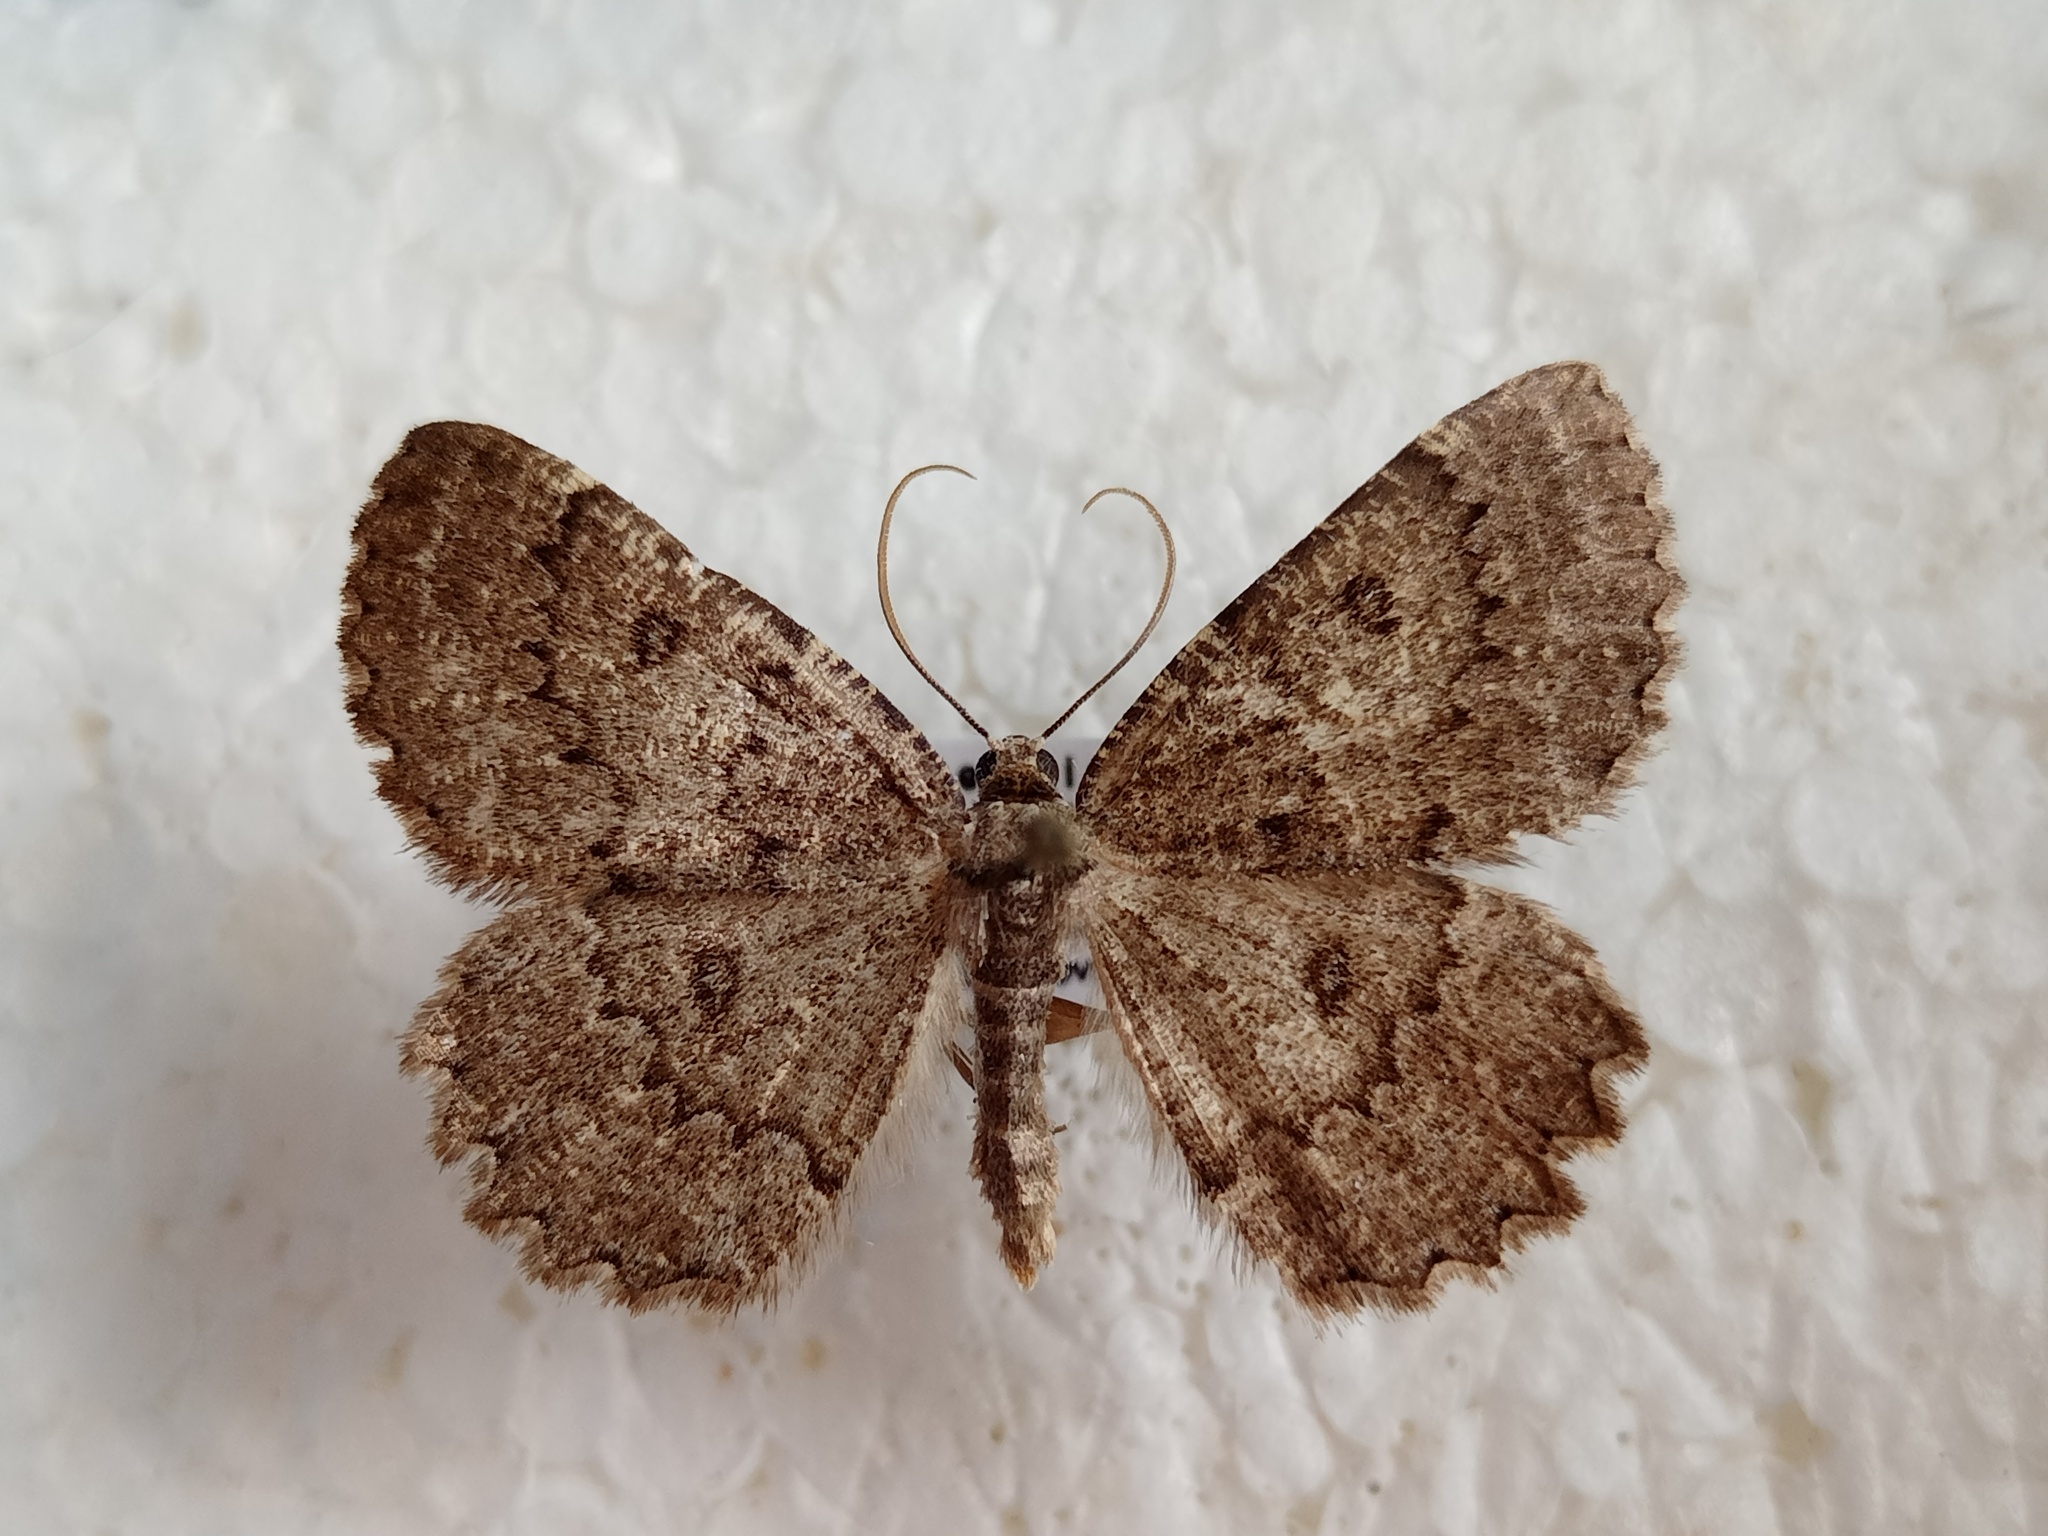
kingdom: Animalia
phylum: Arthropoda
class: Insecta
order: Lepidoptera
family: Geometridae
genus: Charissa
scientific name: Charissa obscurata
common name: Annulet
